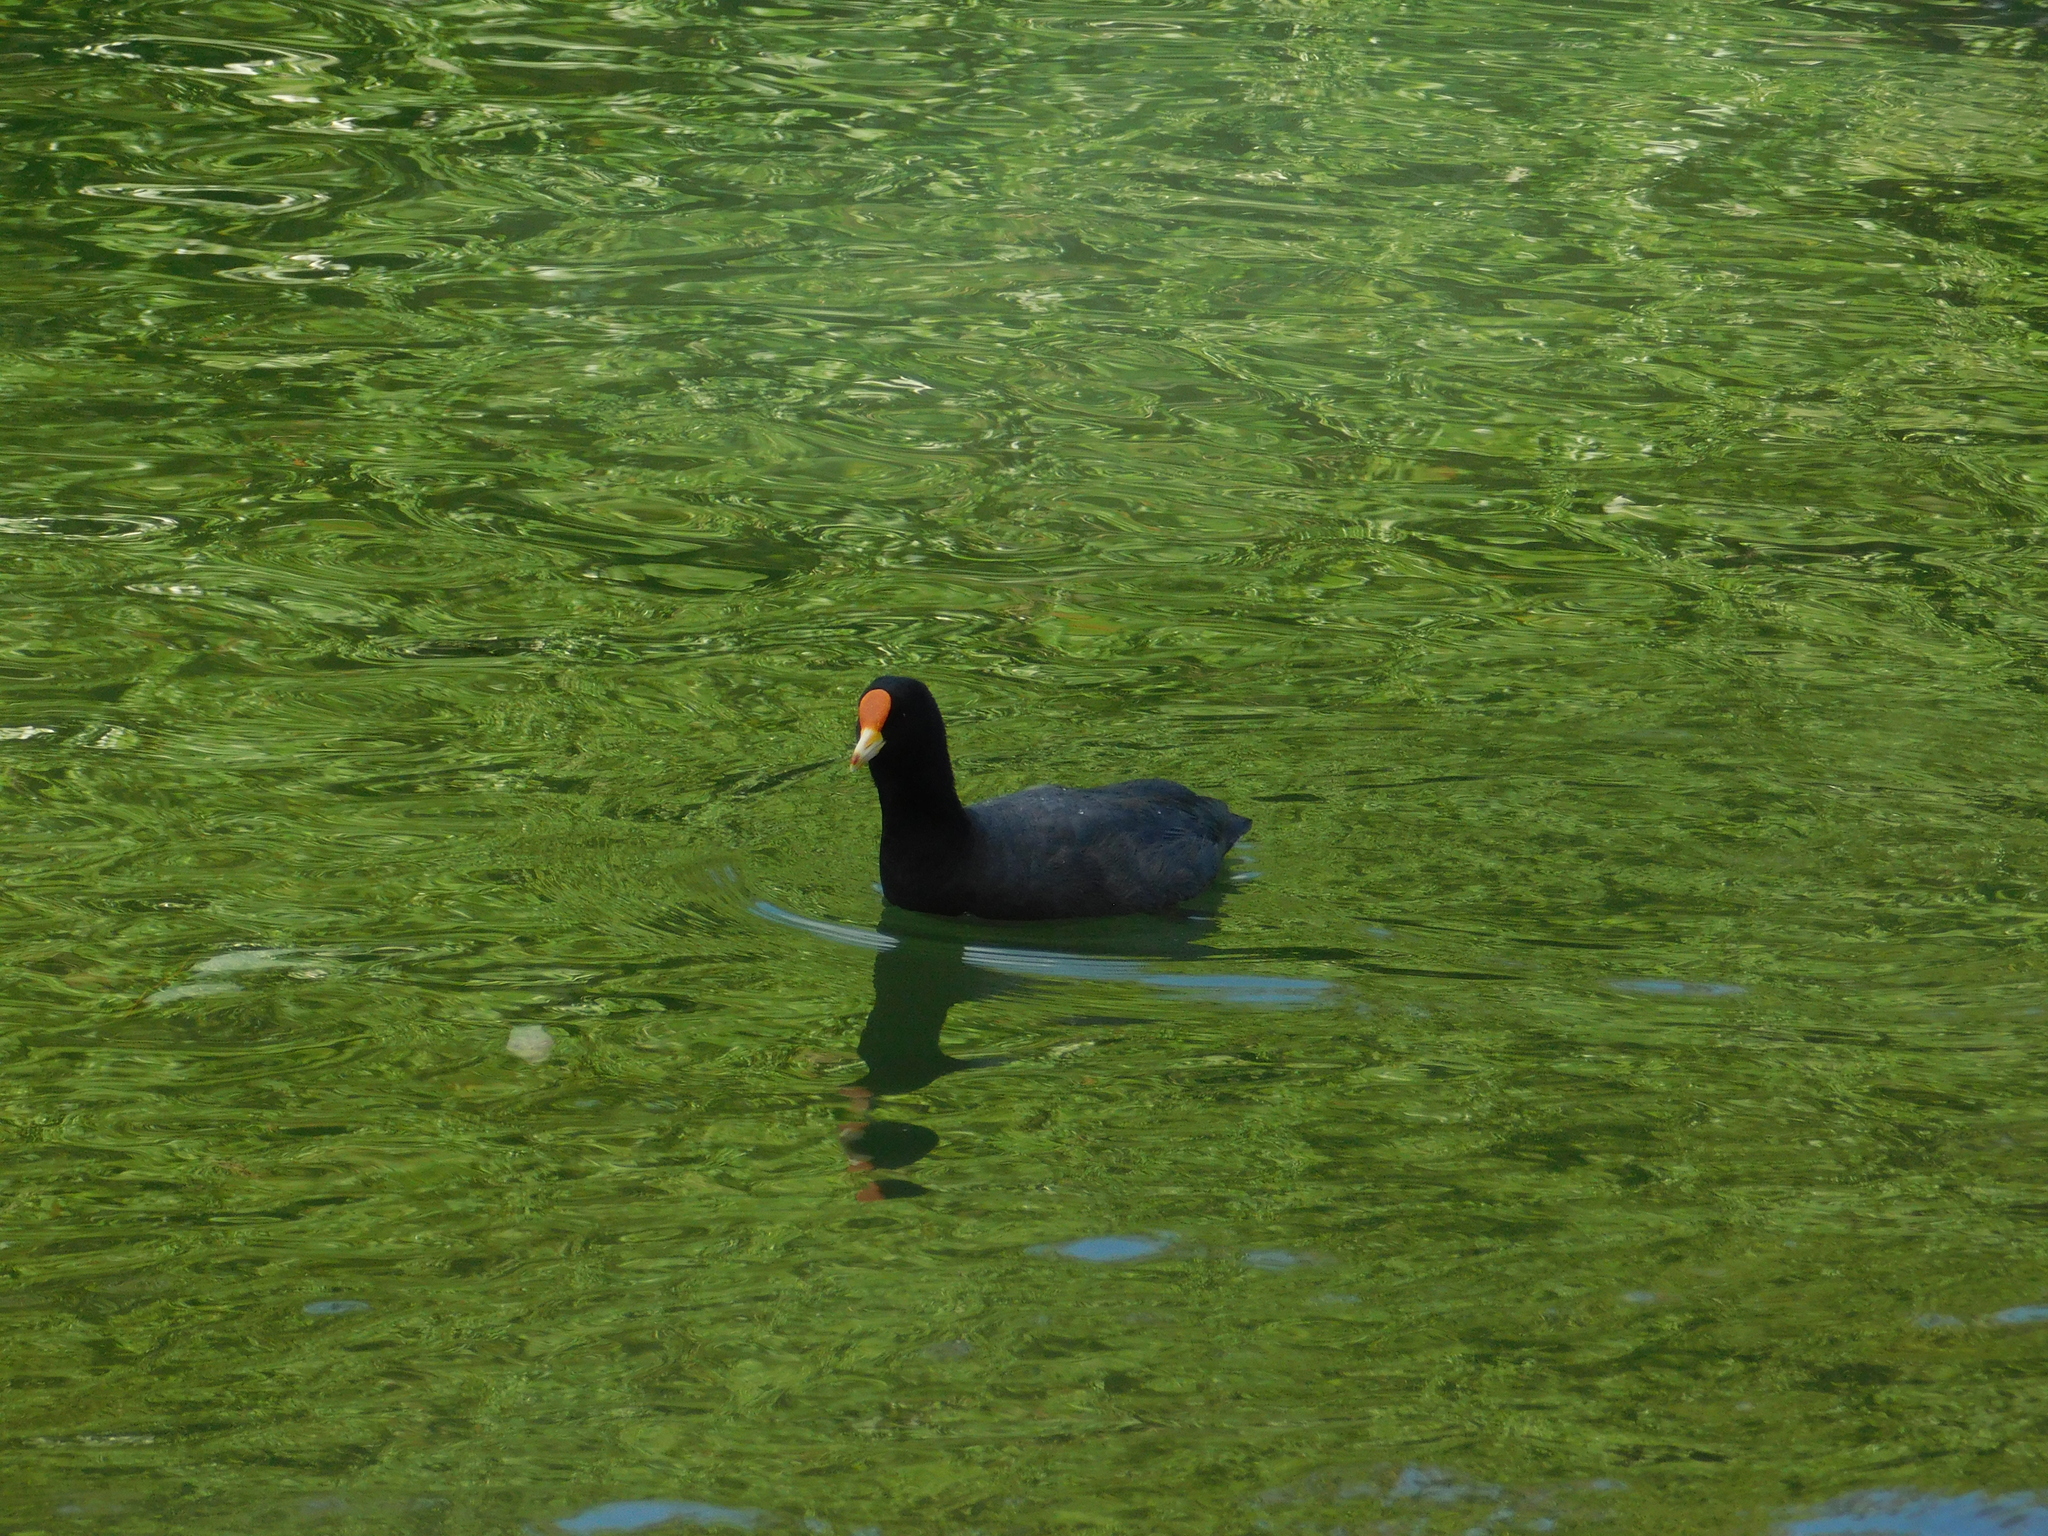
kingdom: Animalia
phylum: Chordata
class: Aves
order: Gruiformes
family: Rallidae
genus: Fulica
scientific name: Fulica leucoptera
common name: White-winged coot
